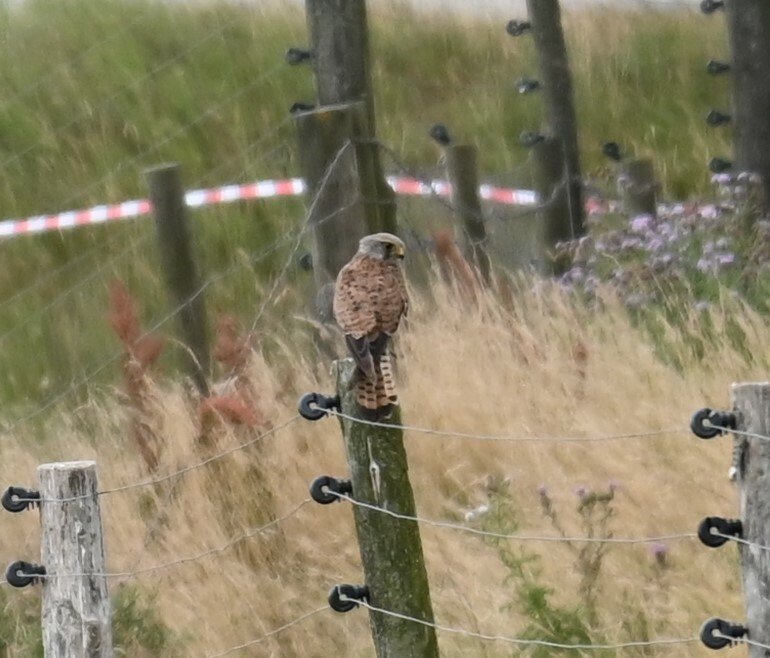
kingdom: Animalia
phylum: Chordata
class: Aves
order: Falconiformes
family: Falconidae
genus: Falco
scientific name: Falco tinnunculus
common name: Common kestrel
